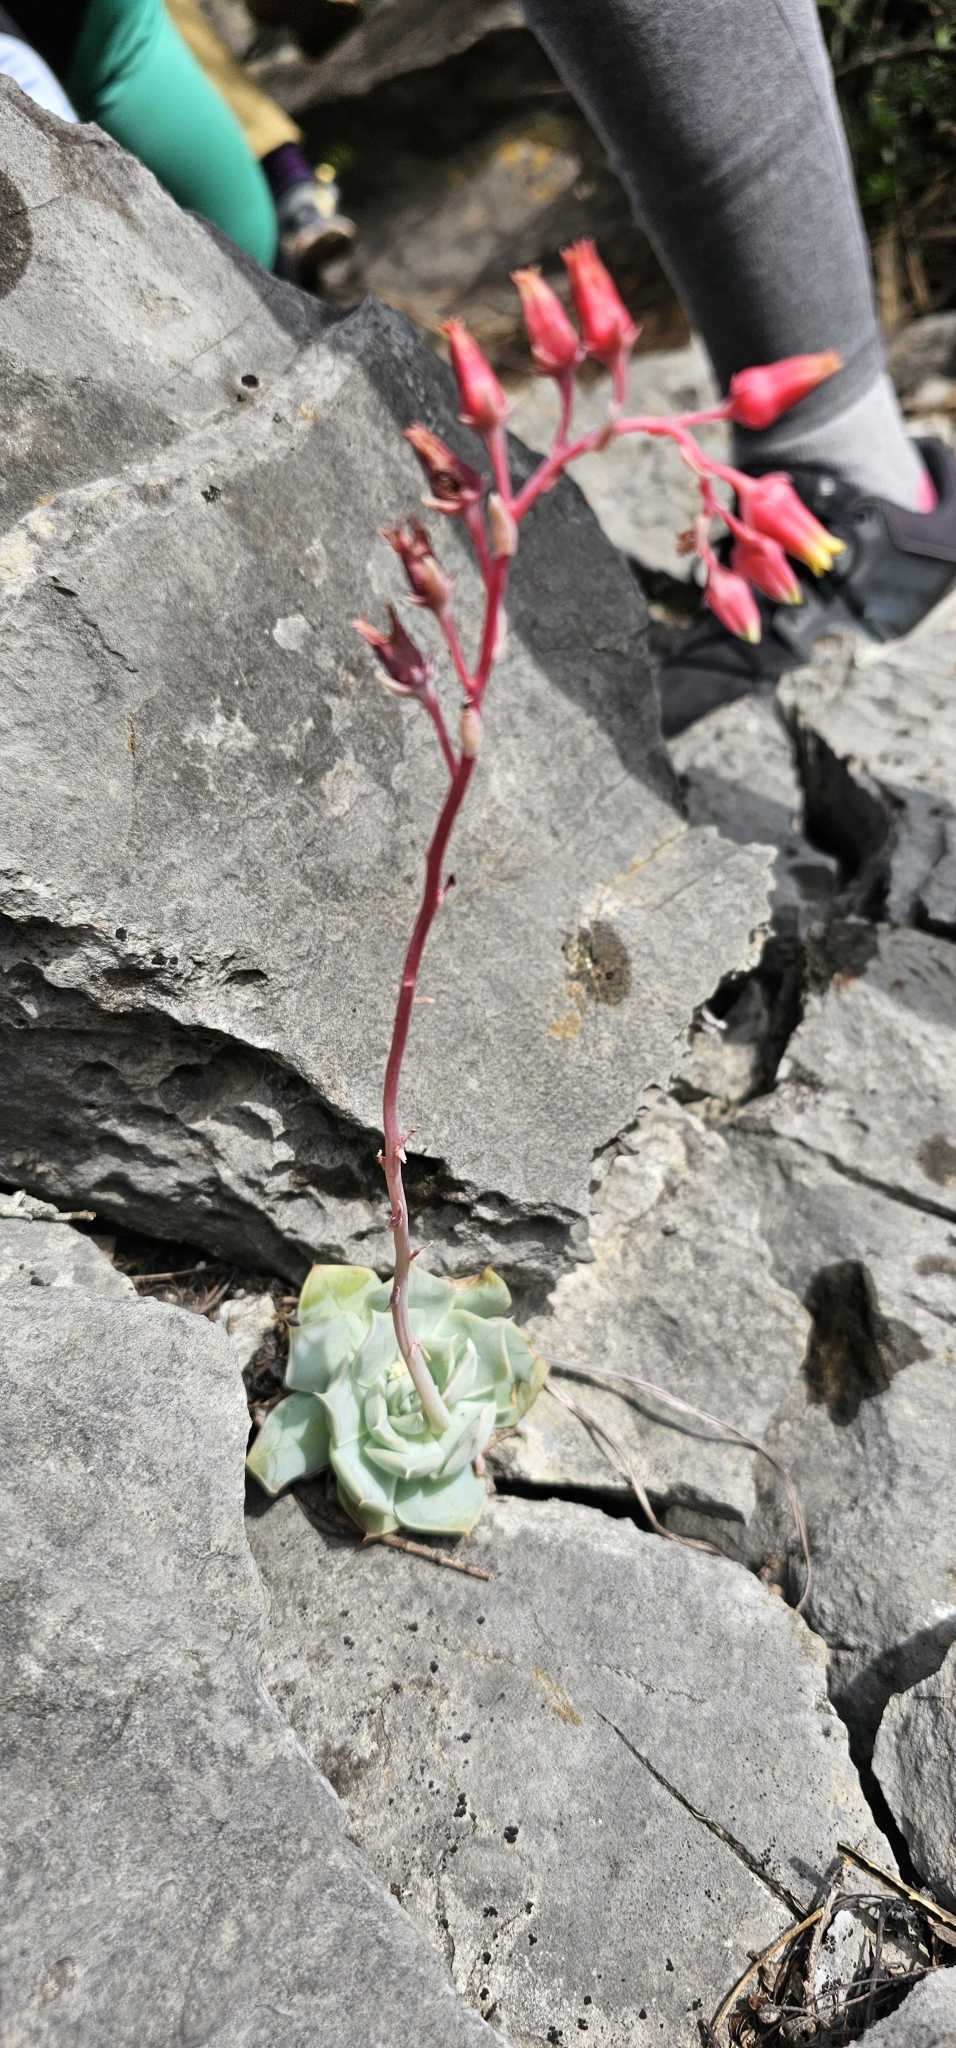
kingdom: Plantae
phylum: Tracheophyta
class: Magnoliopsida
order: Saxifragales
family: Crassulaceae
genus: Echeveria
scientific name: Echeveria simulans
